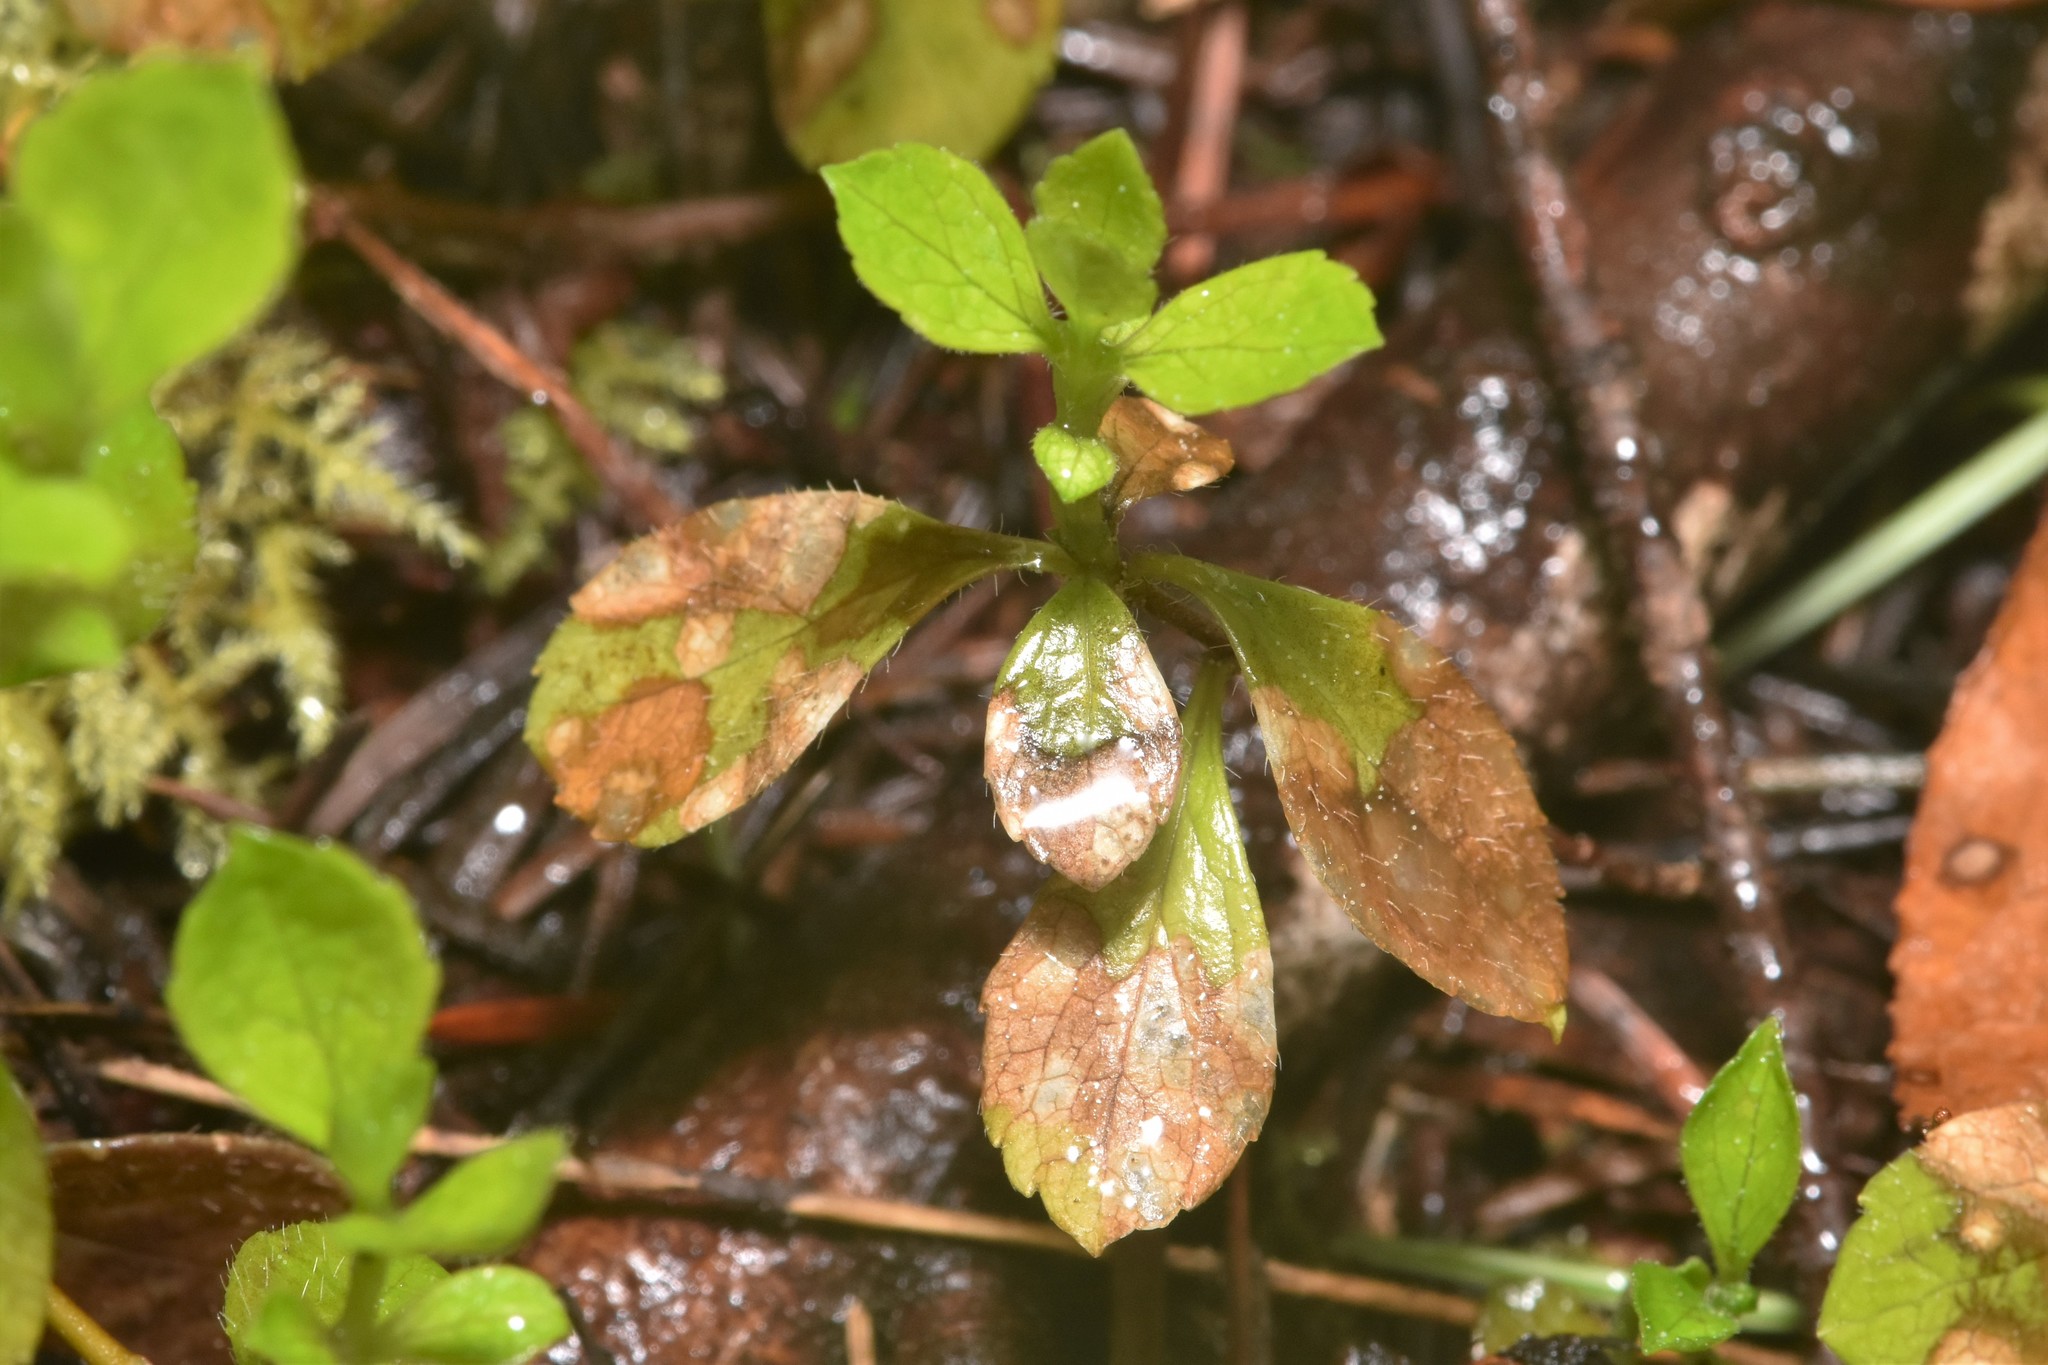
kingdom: Plantae
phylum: Tracheophyta
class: Magnoliopsida
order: Dipsacales
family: Caprifoliaceae
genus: Linnaea
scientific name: Linnaea borealis
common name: Twinflower
